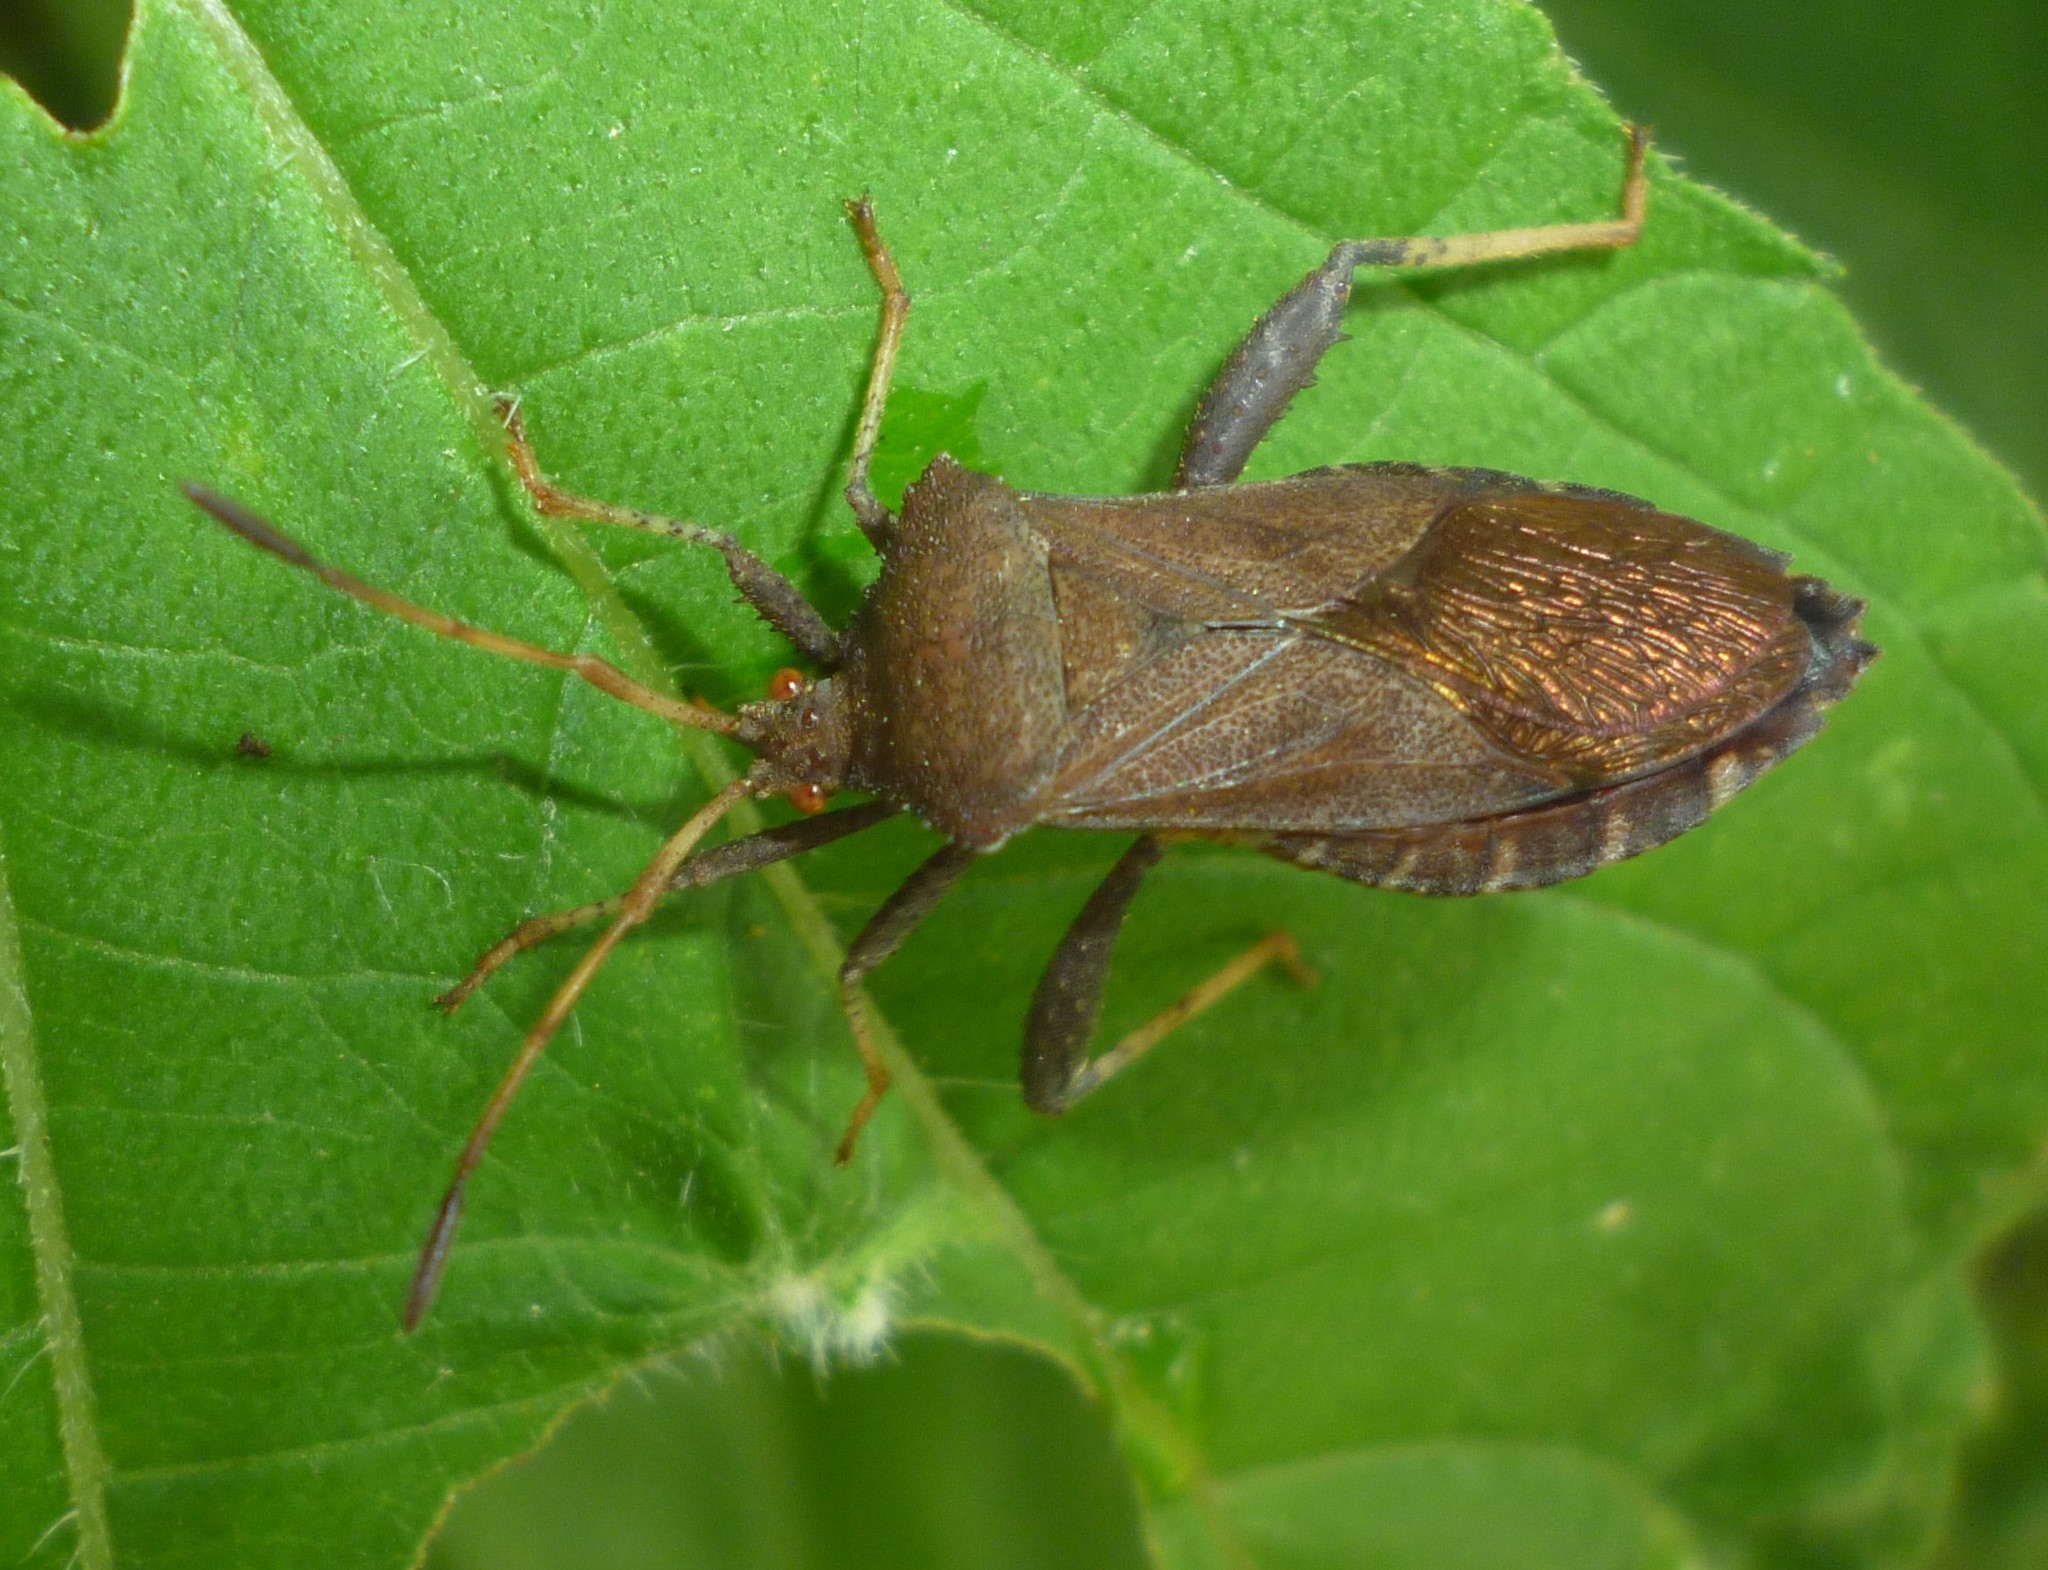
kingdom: Animalia
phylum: Arthropoda
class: Insecta
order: Hemiptera
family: Coreidae
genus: Euthochtha
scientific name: Euthochtha galeator
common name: Helmeted squash bug
